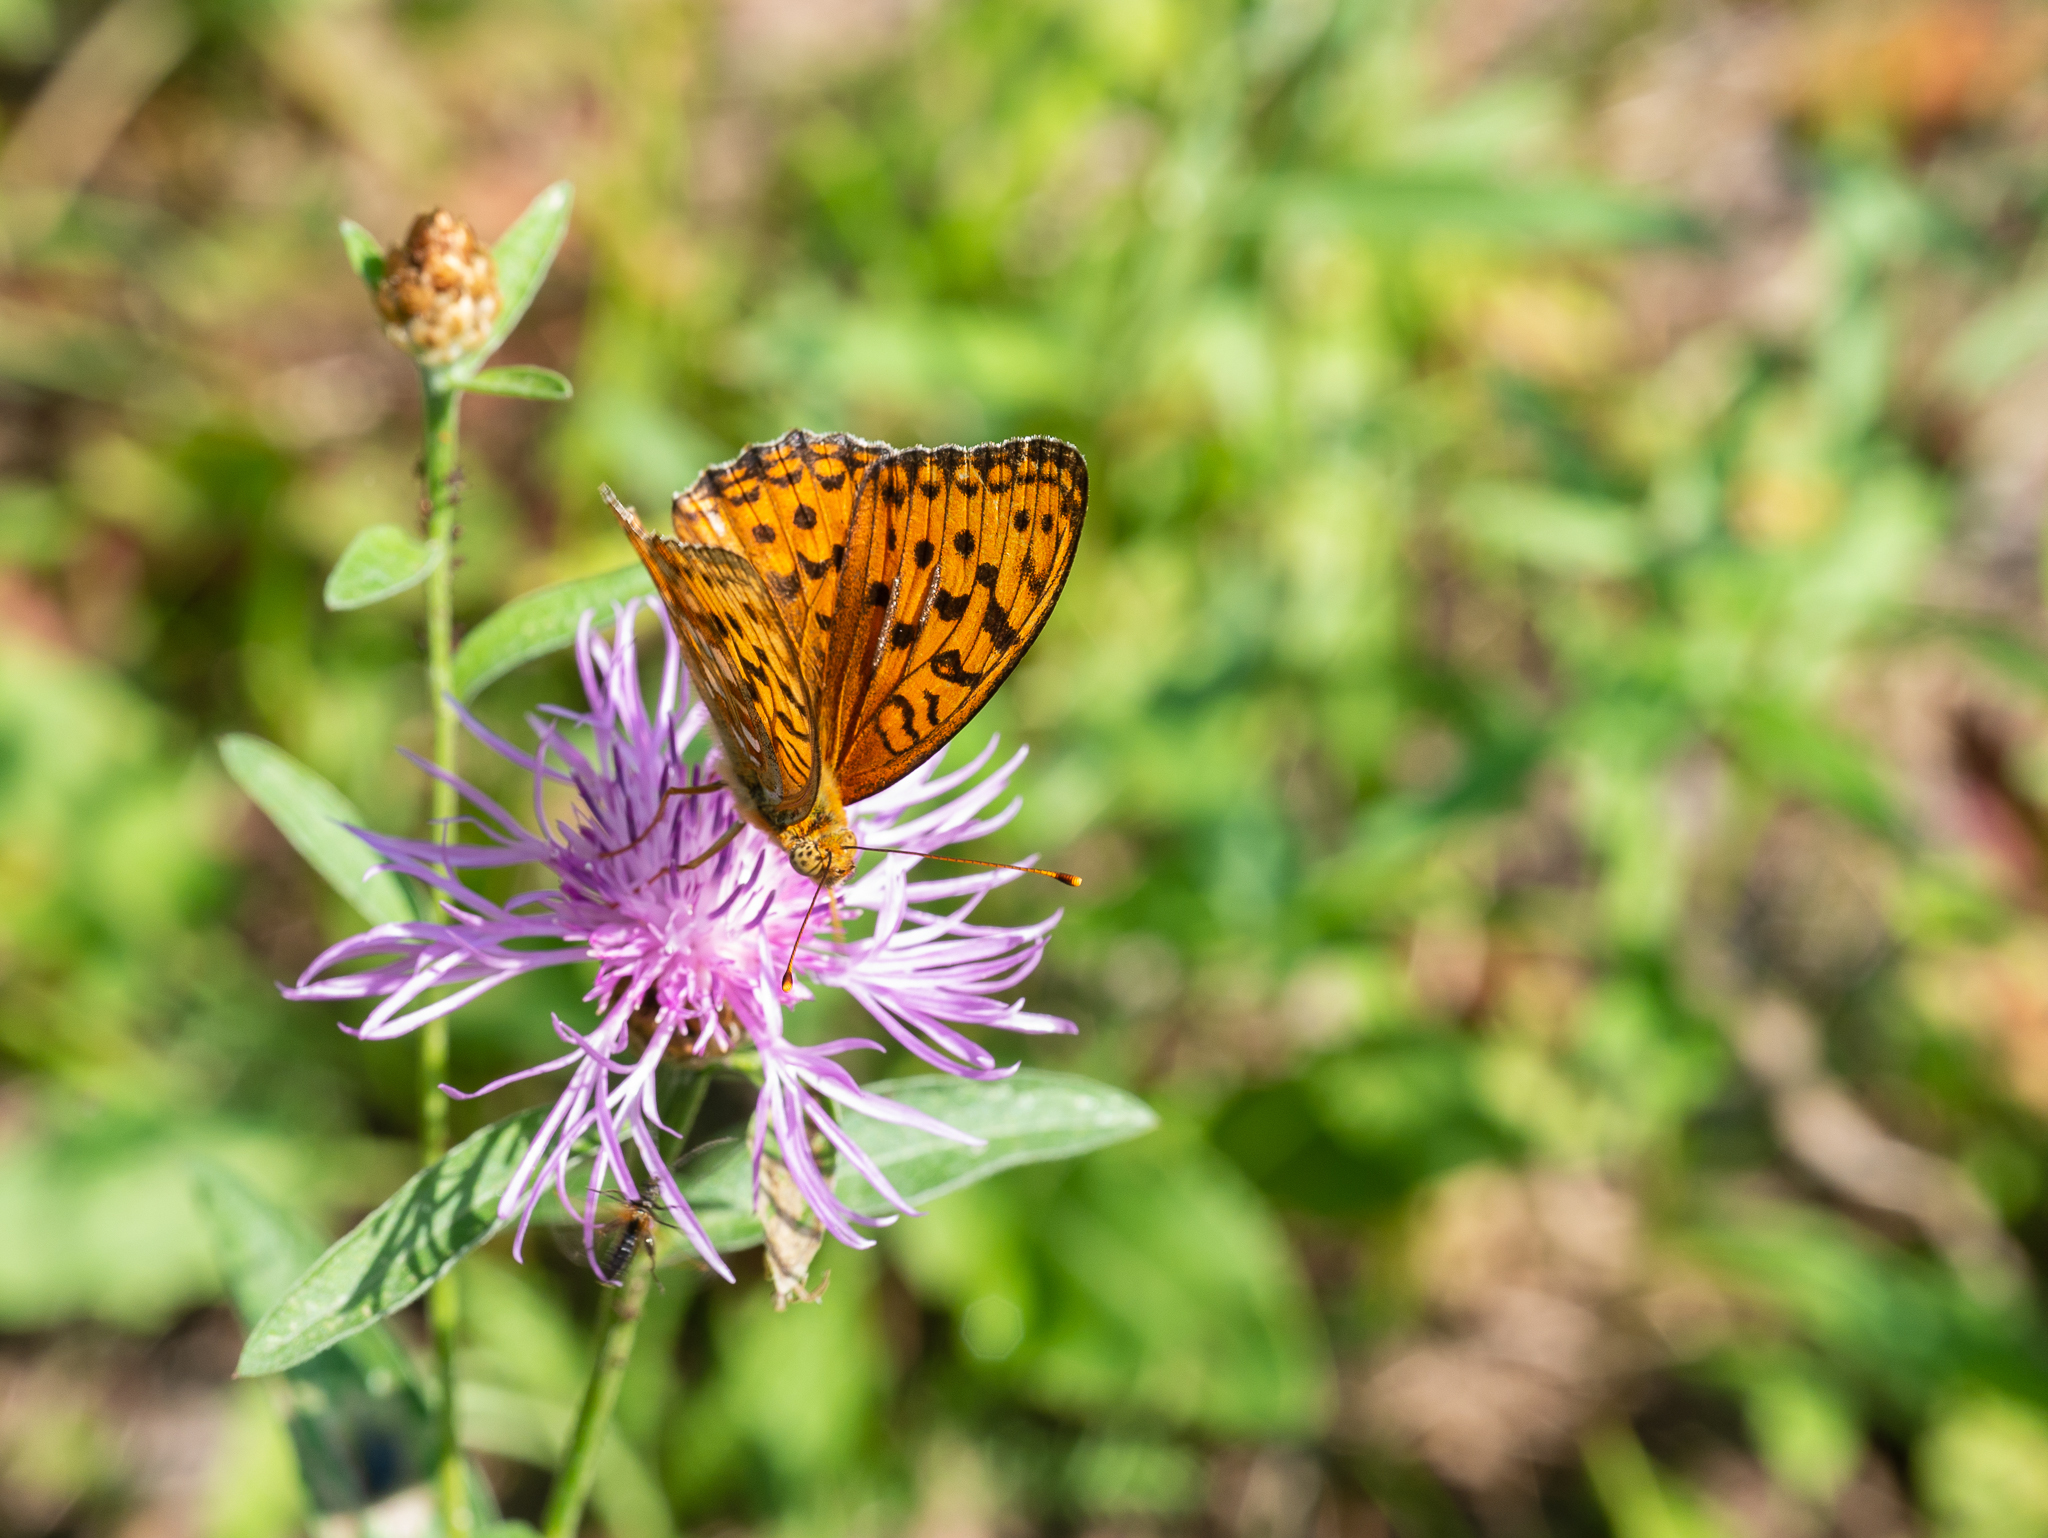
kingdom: Animalia
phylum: Arthropoda
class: Insecta
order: Lepidoptera
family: Nymphalidae
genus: Fabriciana
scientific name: Fabriciana adippe
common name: High brown fritillary
